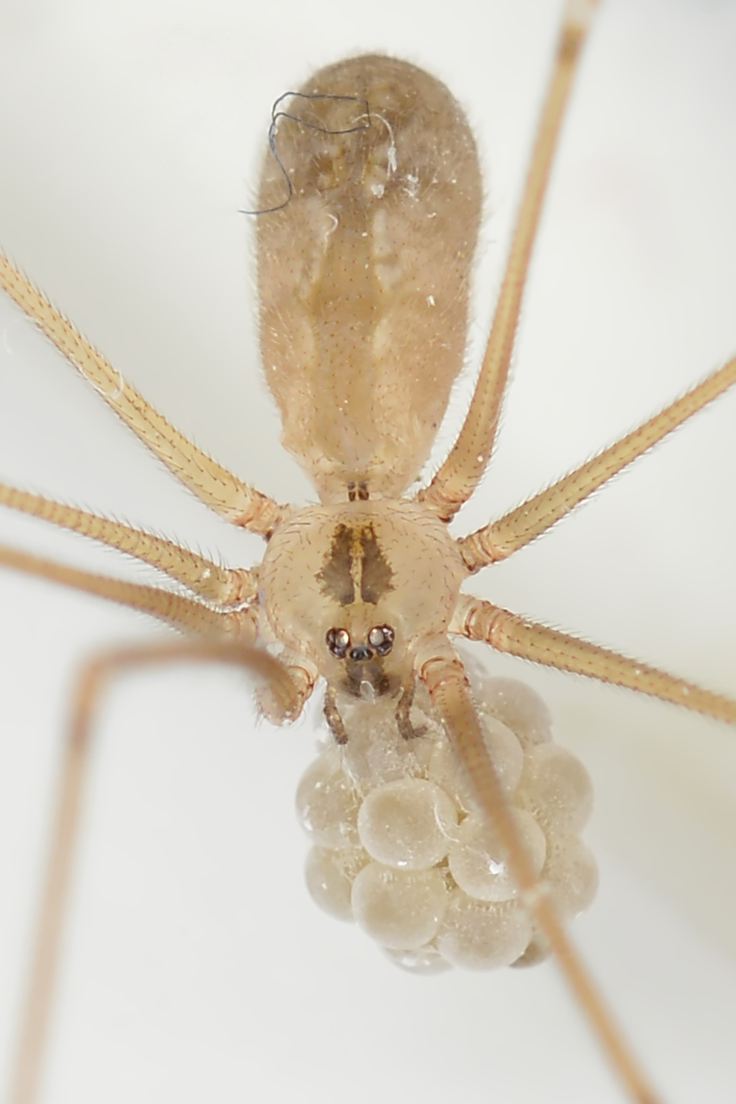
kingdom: Animalia
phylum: Arthropoda
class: Arachnida
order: Araneae
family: Pholcidae
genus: Pholcus
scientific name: Pholcus manueli
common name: Cellar spider
